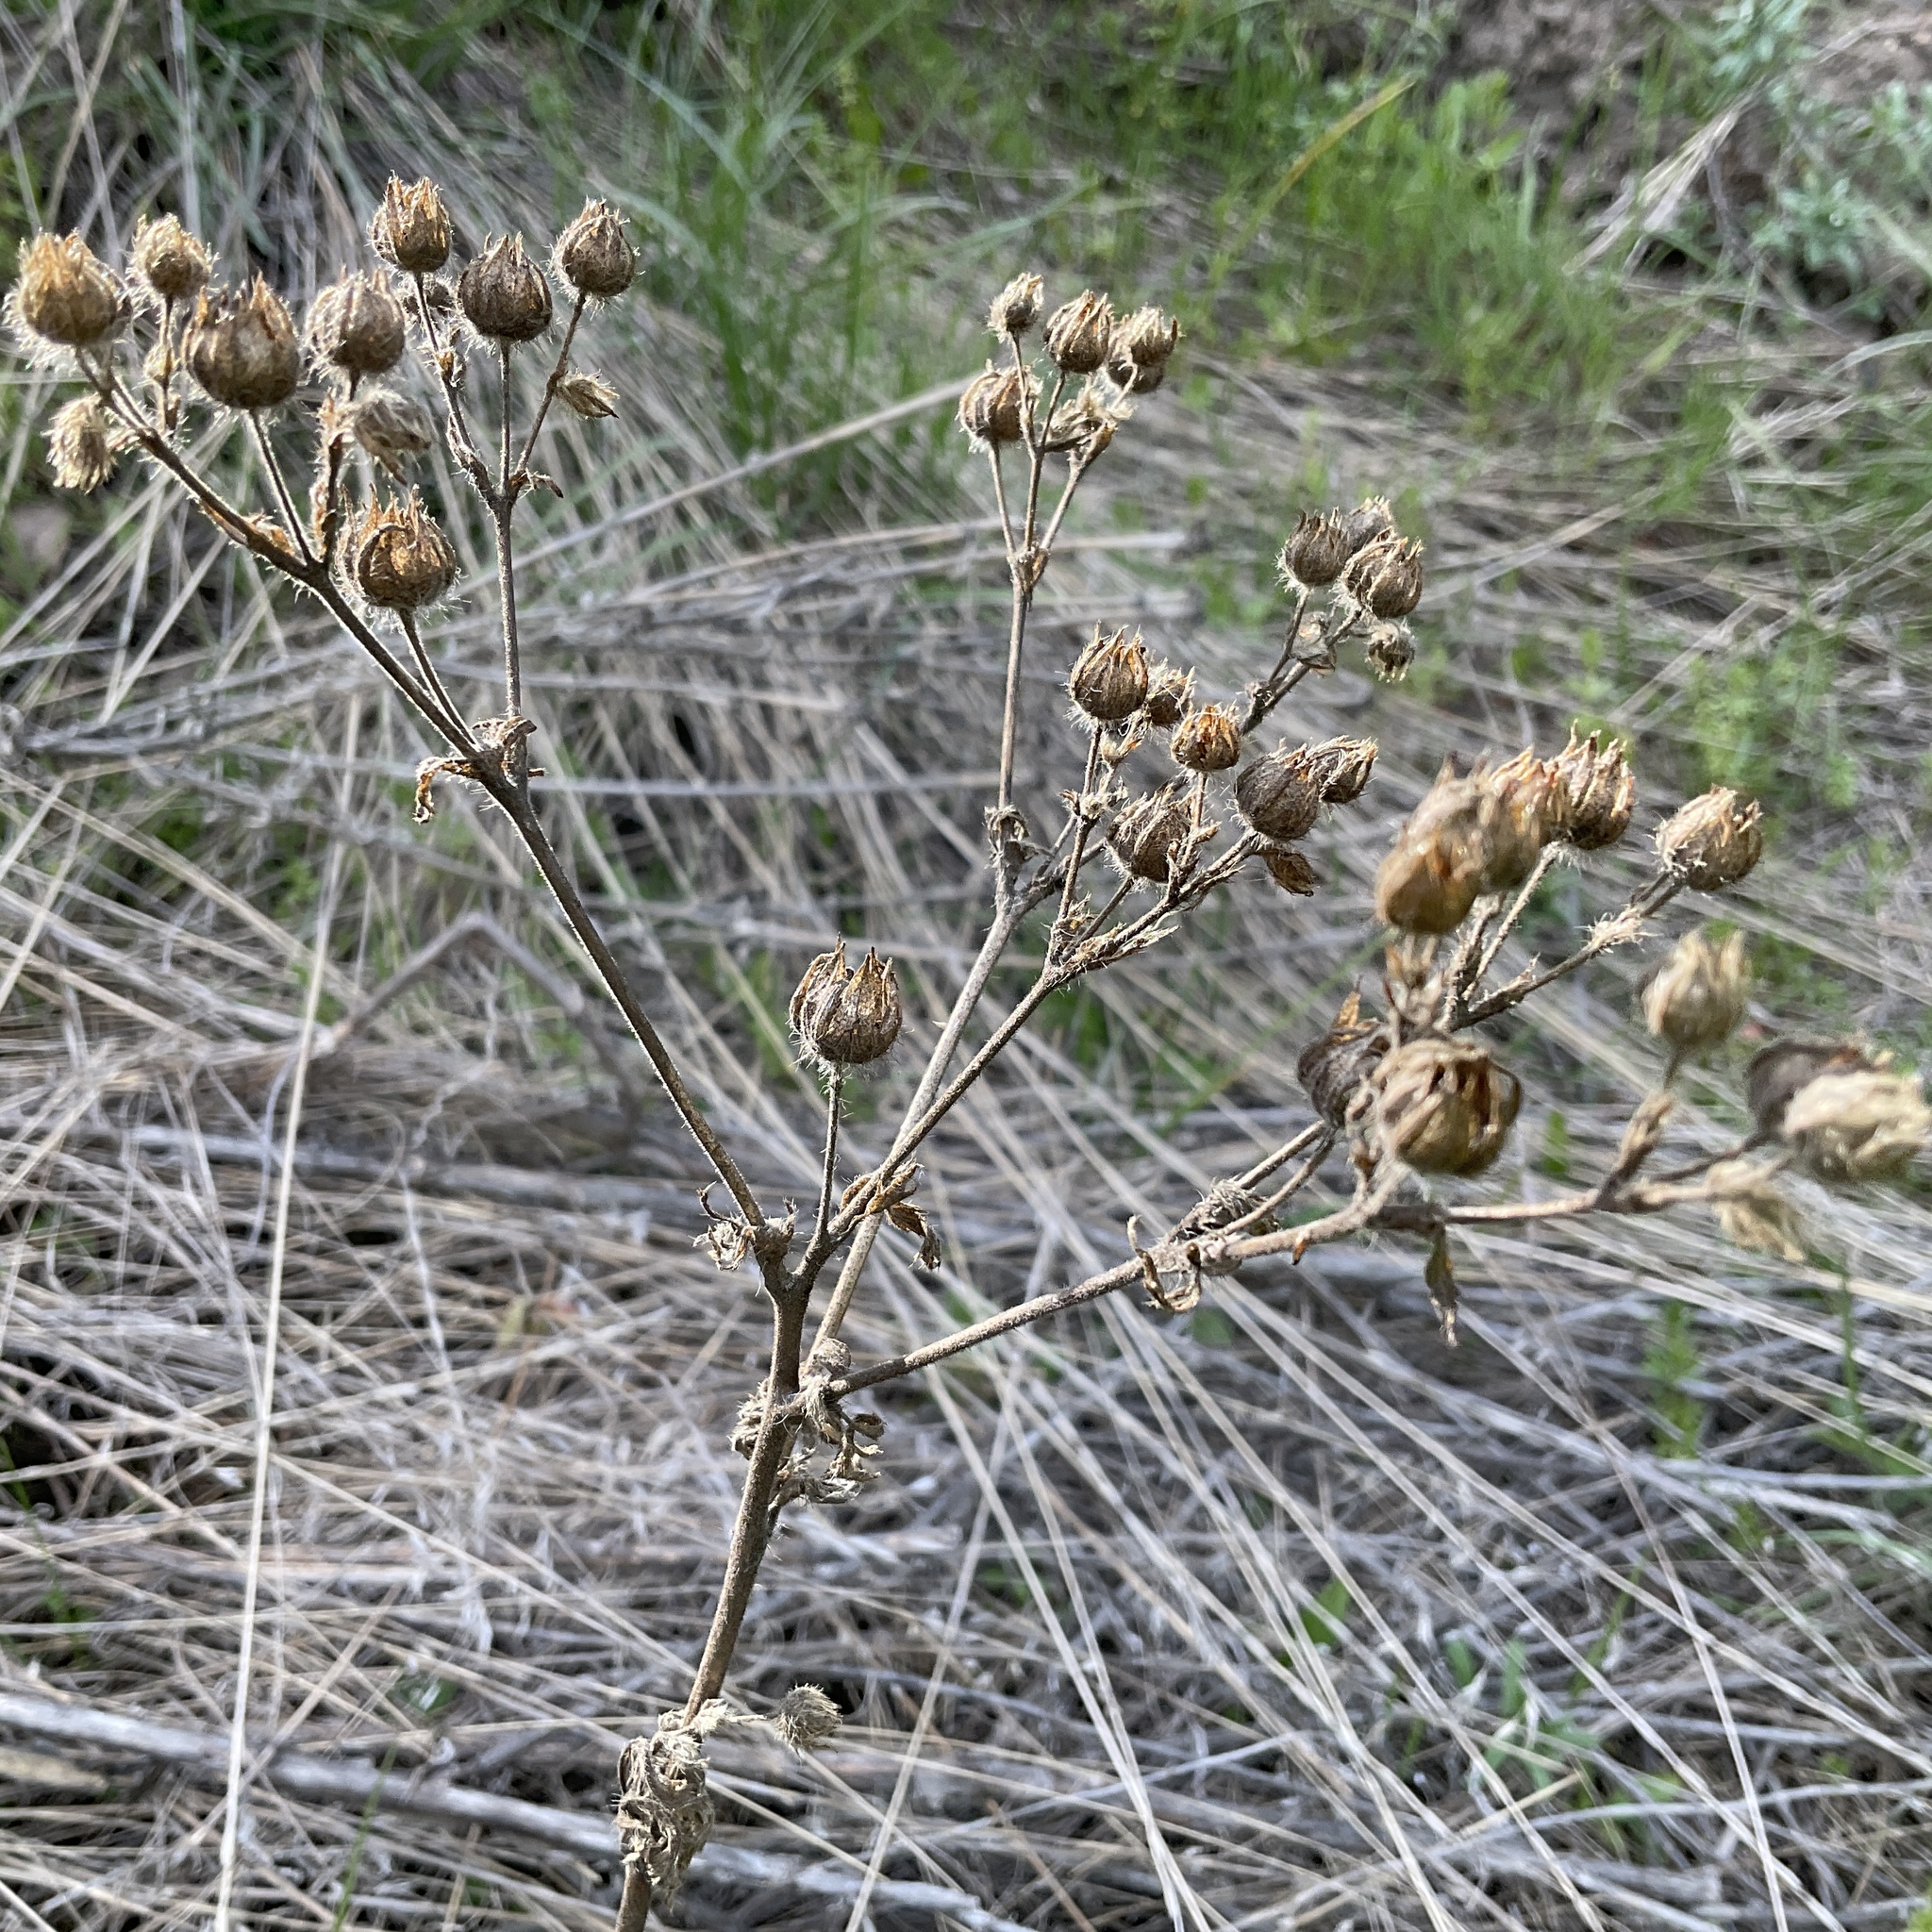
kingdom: Plantae
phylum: Tracheophyta
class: Magnoliopsida
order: Rosales
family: Rosaceae
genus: Potentilla
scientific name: Potentilla recta
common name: Sulphur cinquefoil
